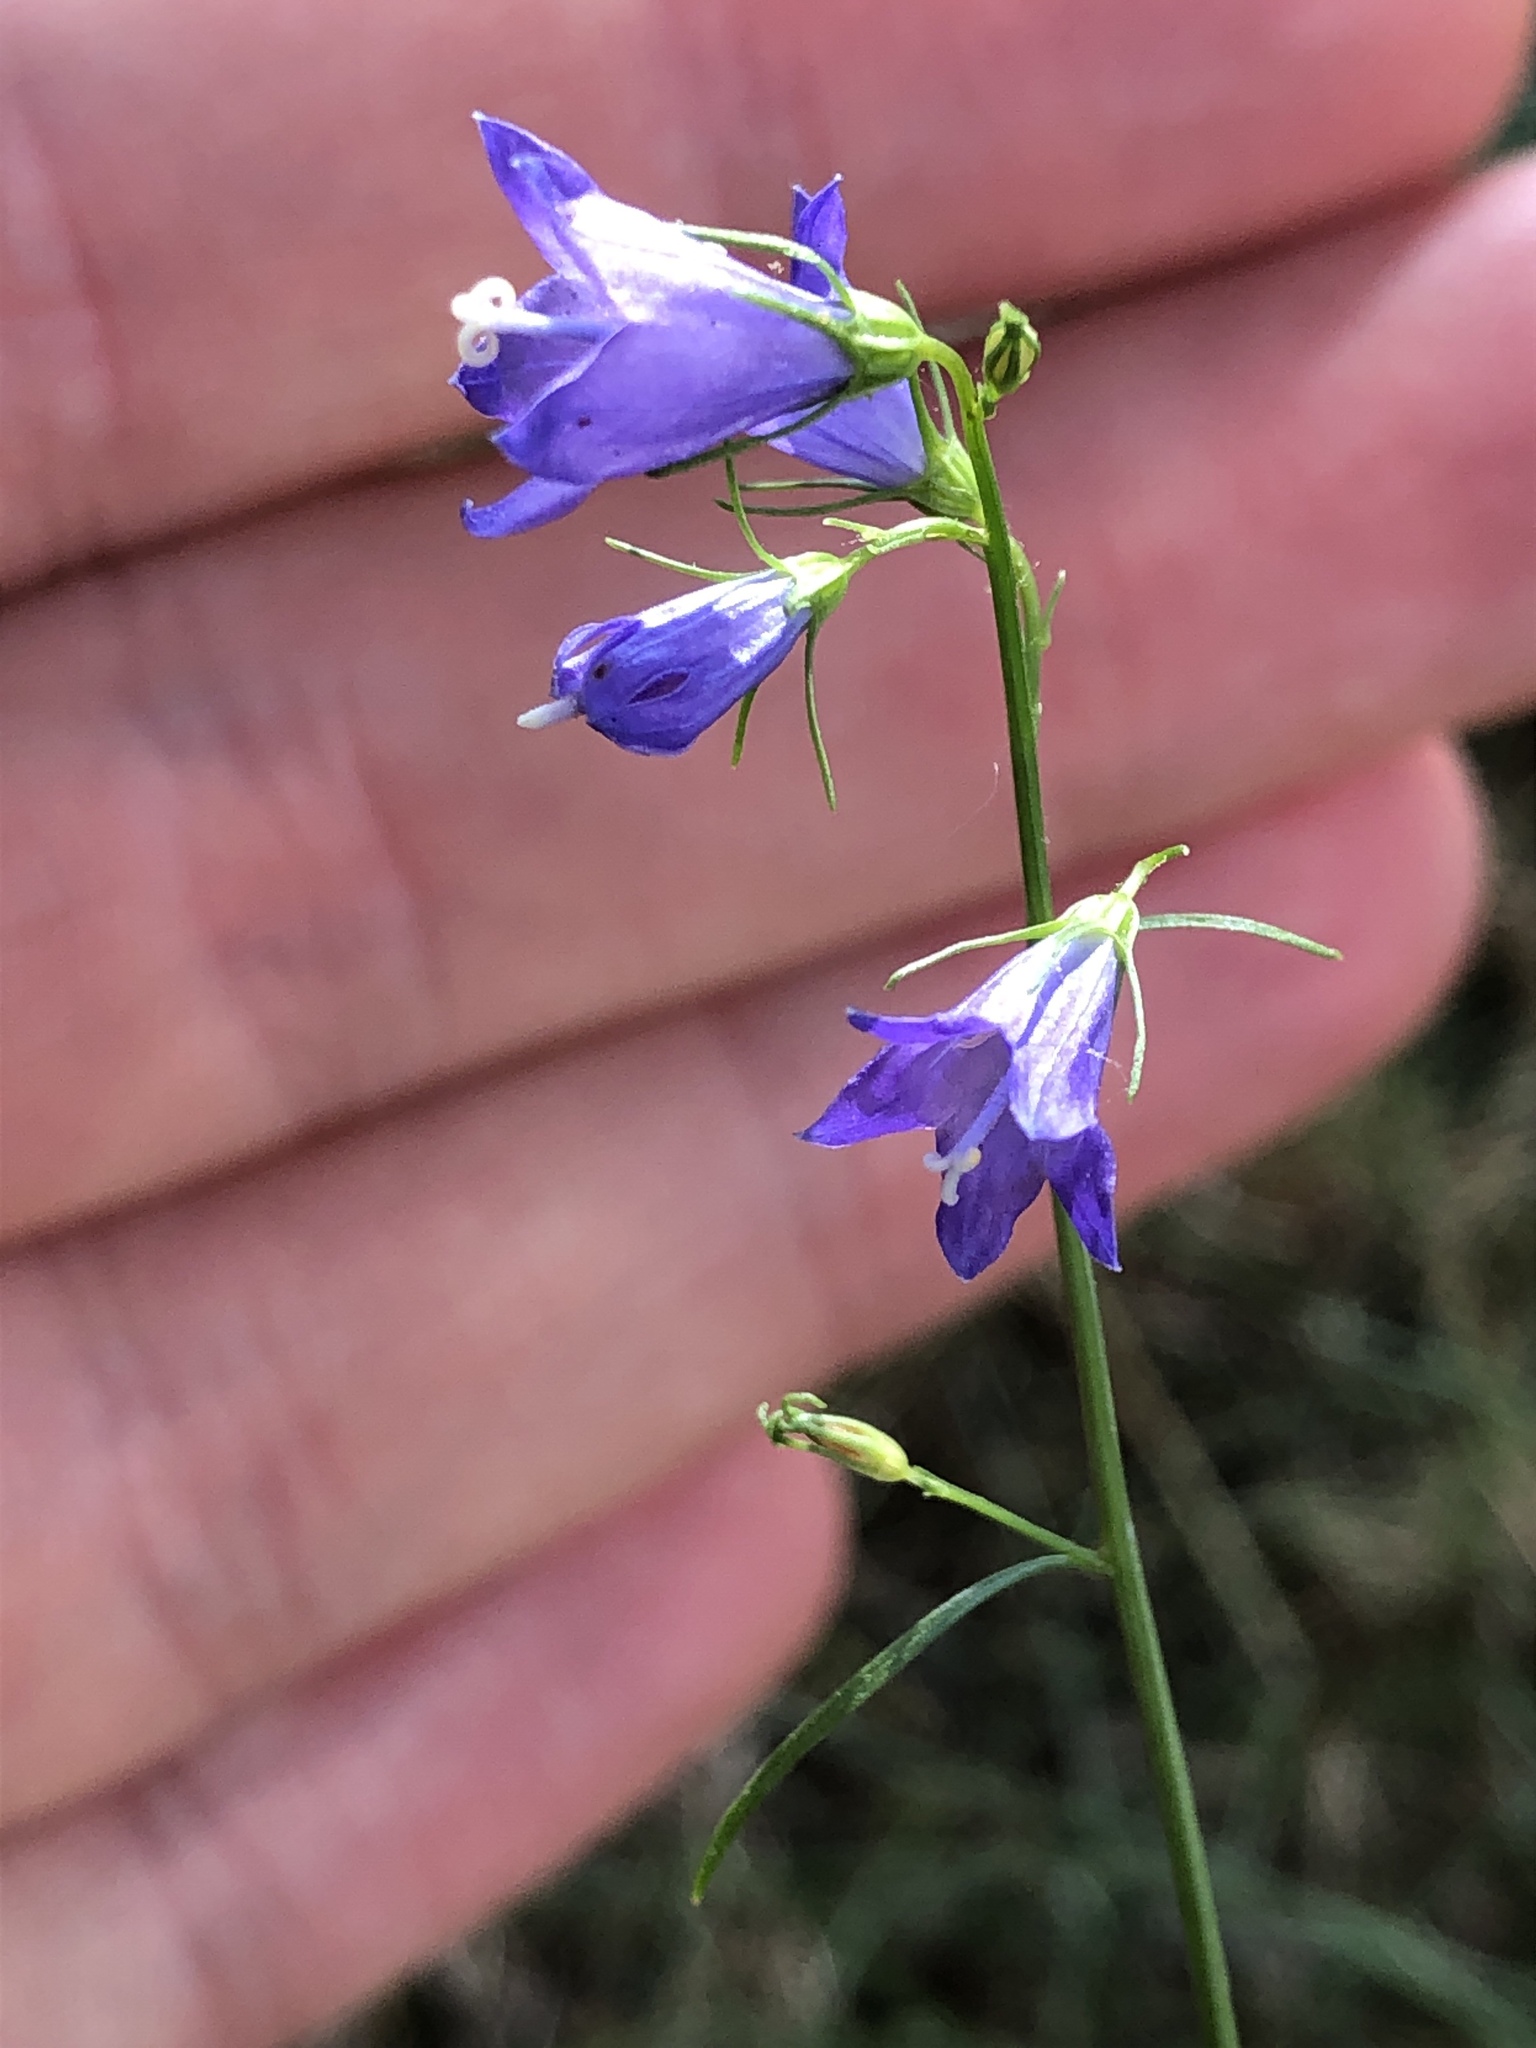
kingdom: Plantae
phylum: Tracheophyta
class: Magnoliopsida
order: Asterales
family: Campanulaceae
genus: Campanula
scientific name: Campanula rotundifolia
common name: Harebell
